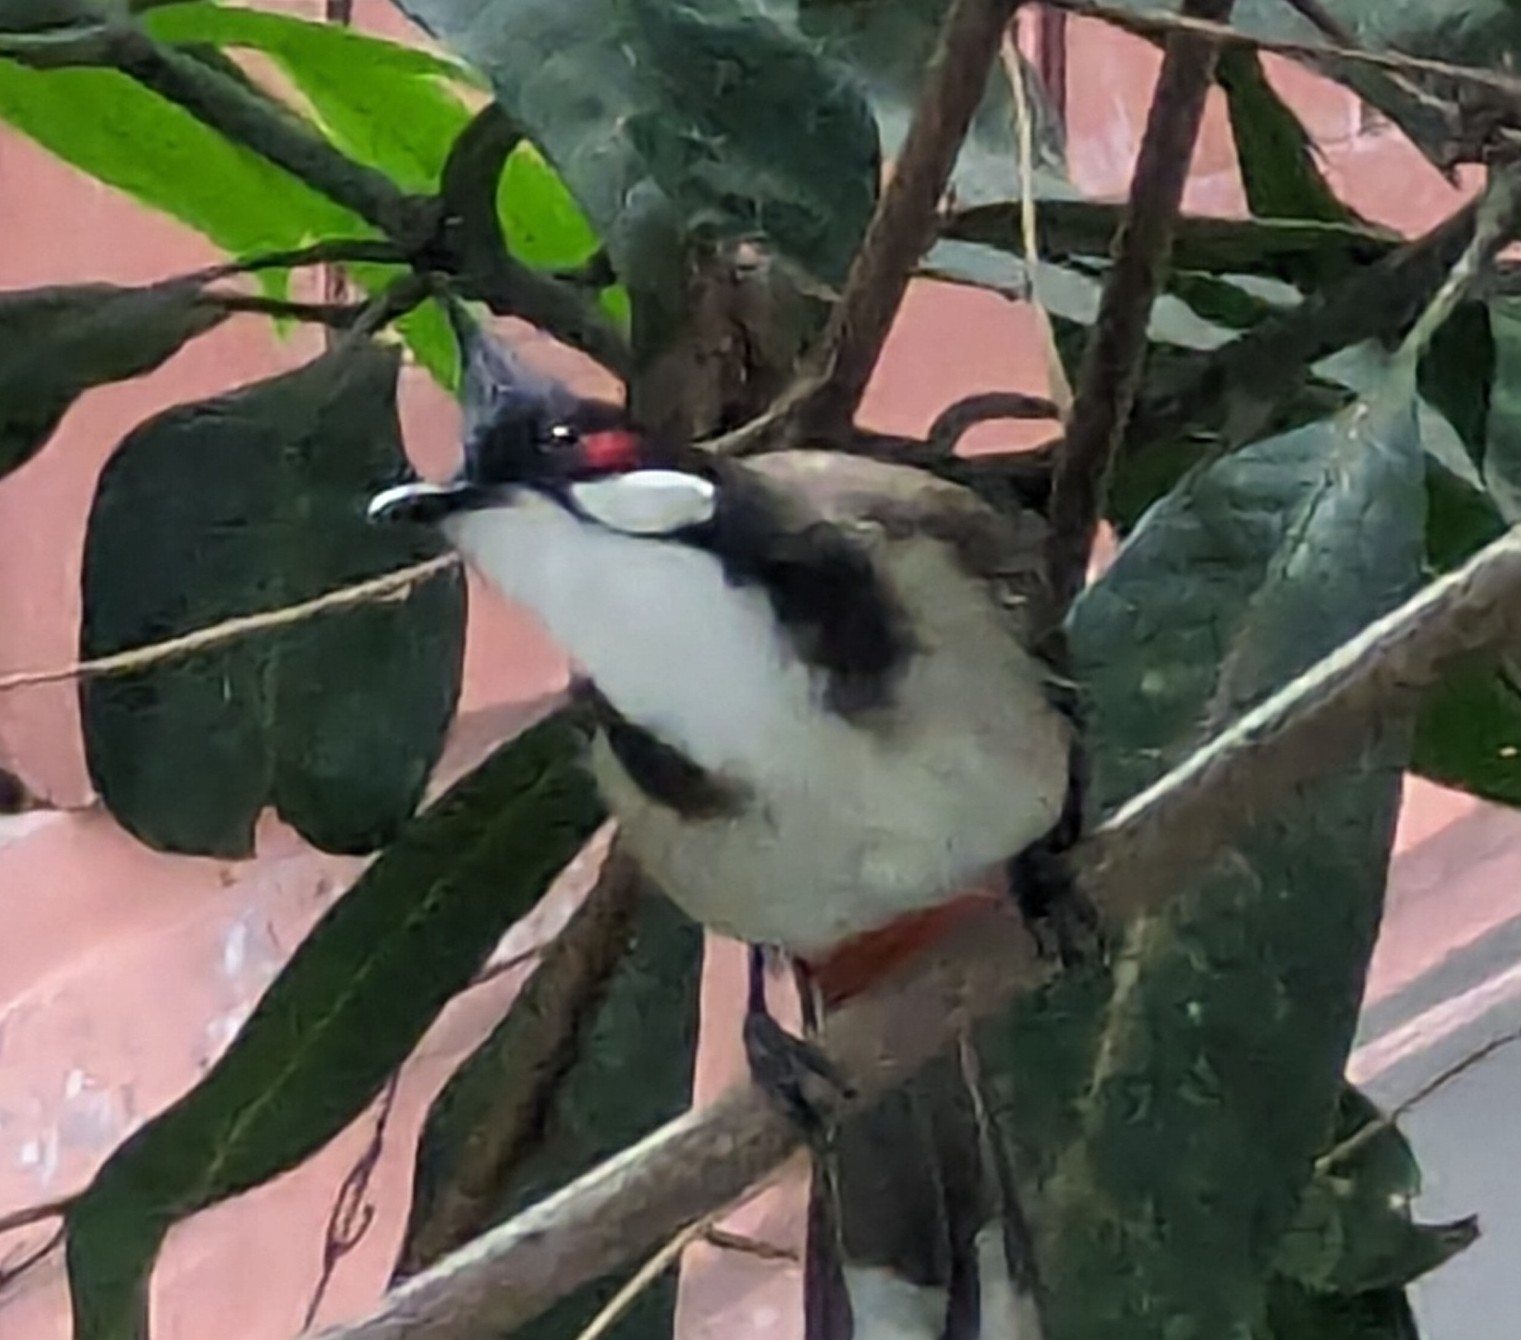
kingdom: Animalia
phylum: Chordata
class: Aves
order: Passeriformes
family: Pycnonotidae
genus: Pycnonotus
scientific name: Pycnonotus jocosus
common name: Red-whiskered bulbul
